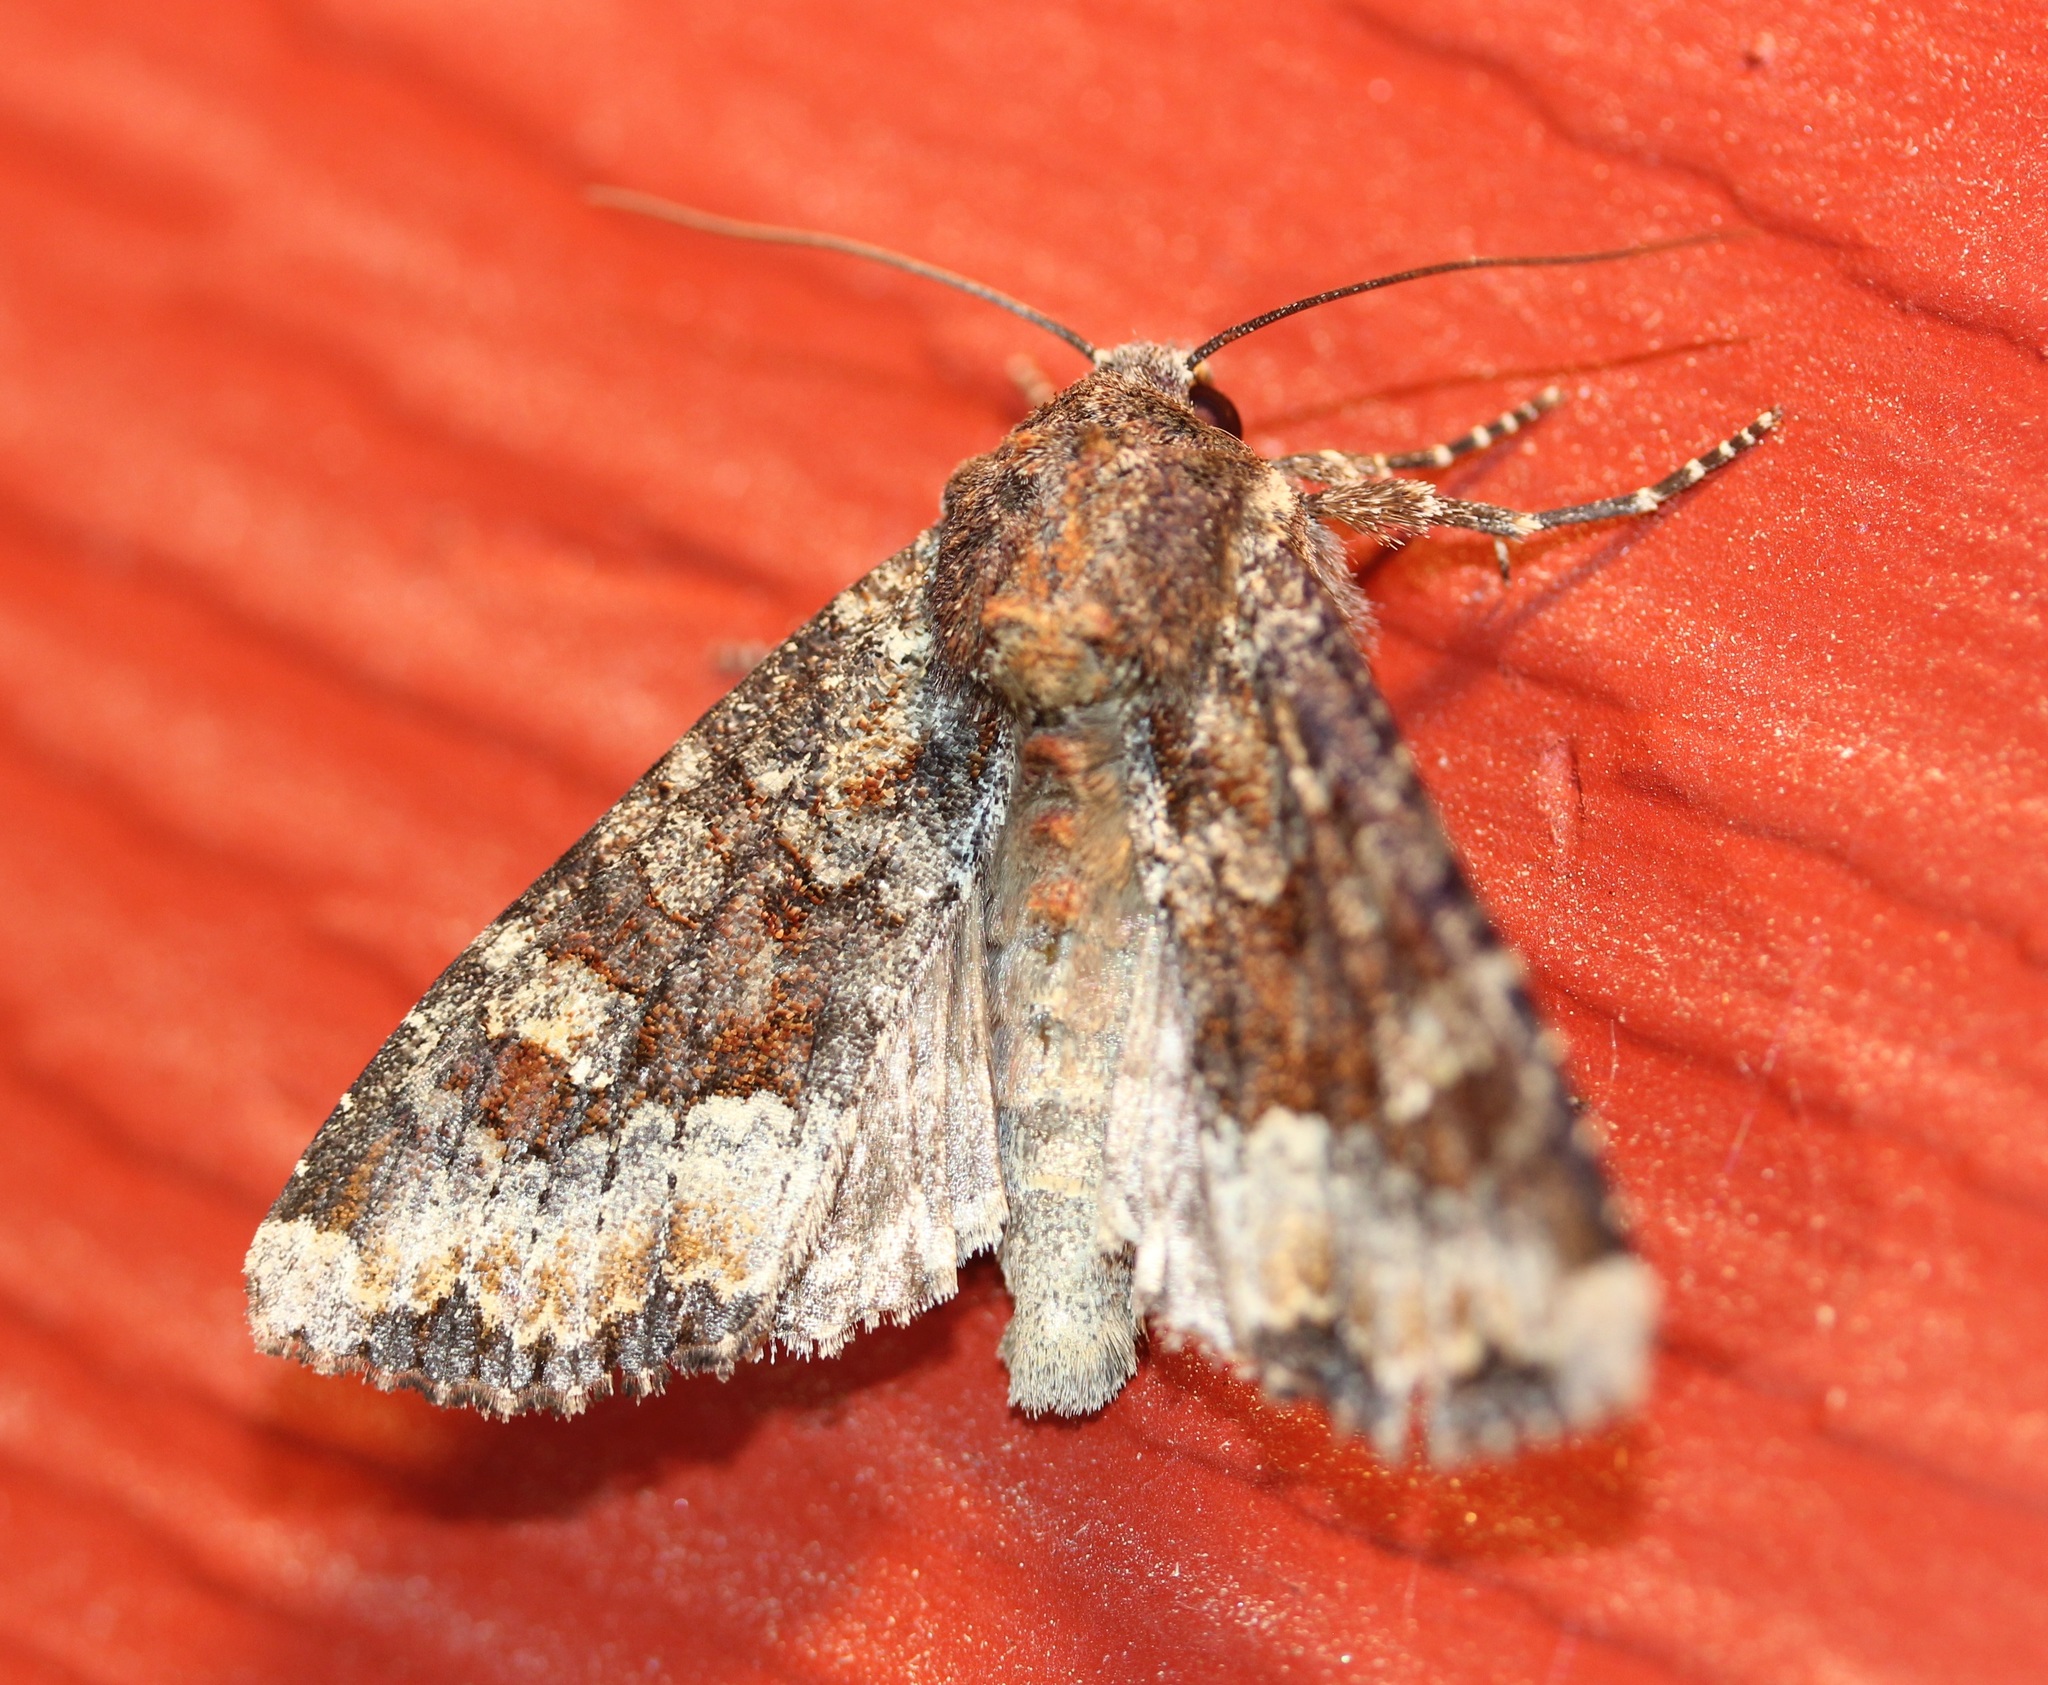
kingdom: Animalia
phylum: Arthropoda
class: Insecta
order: Lepidoptera
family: Noctuidae
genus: Apamea
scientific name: Apamea amputatrix
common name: Yellow-headed cutworm moth
